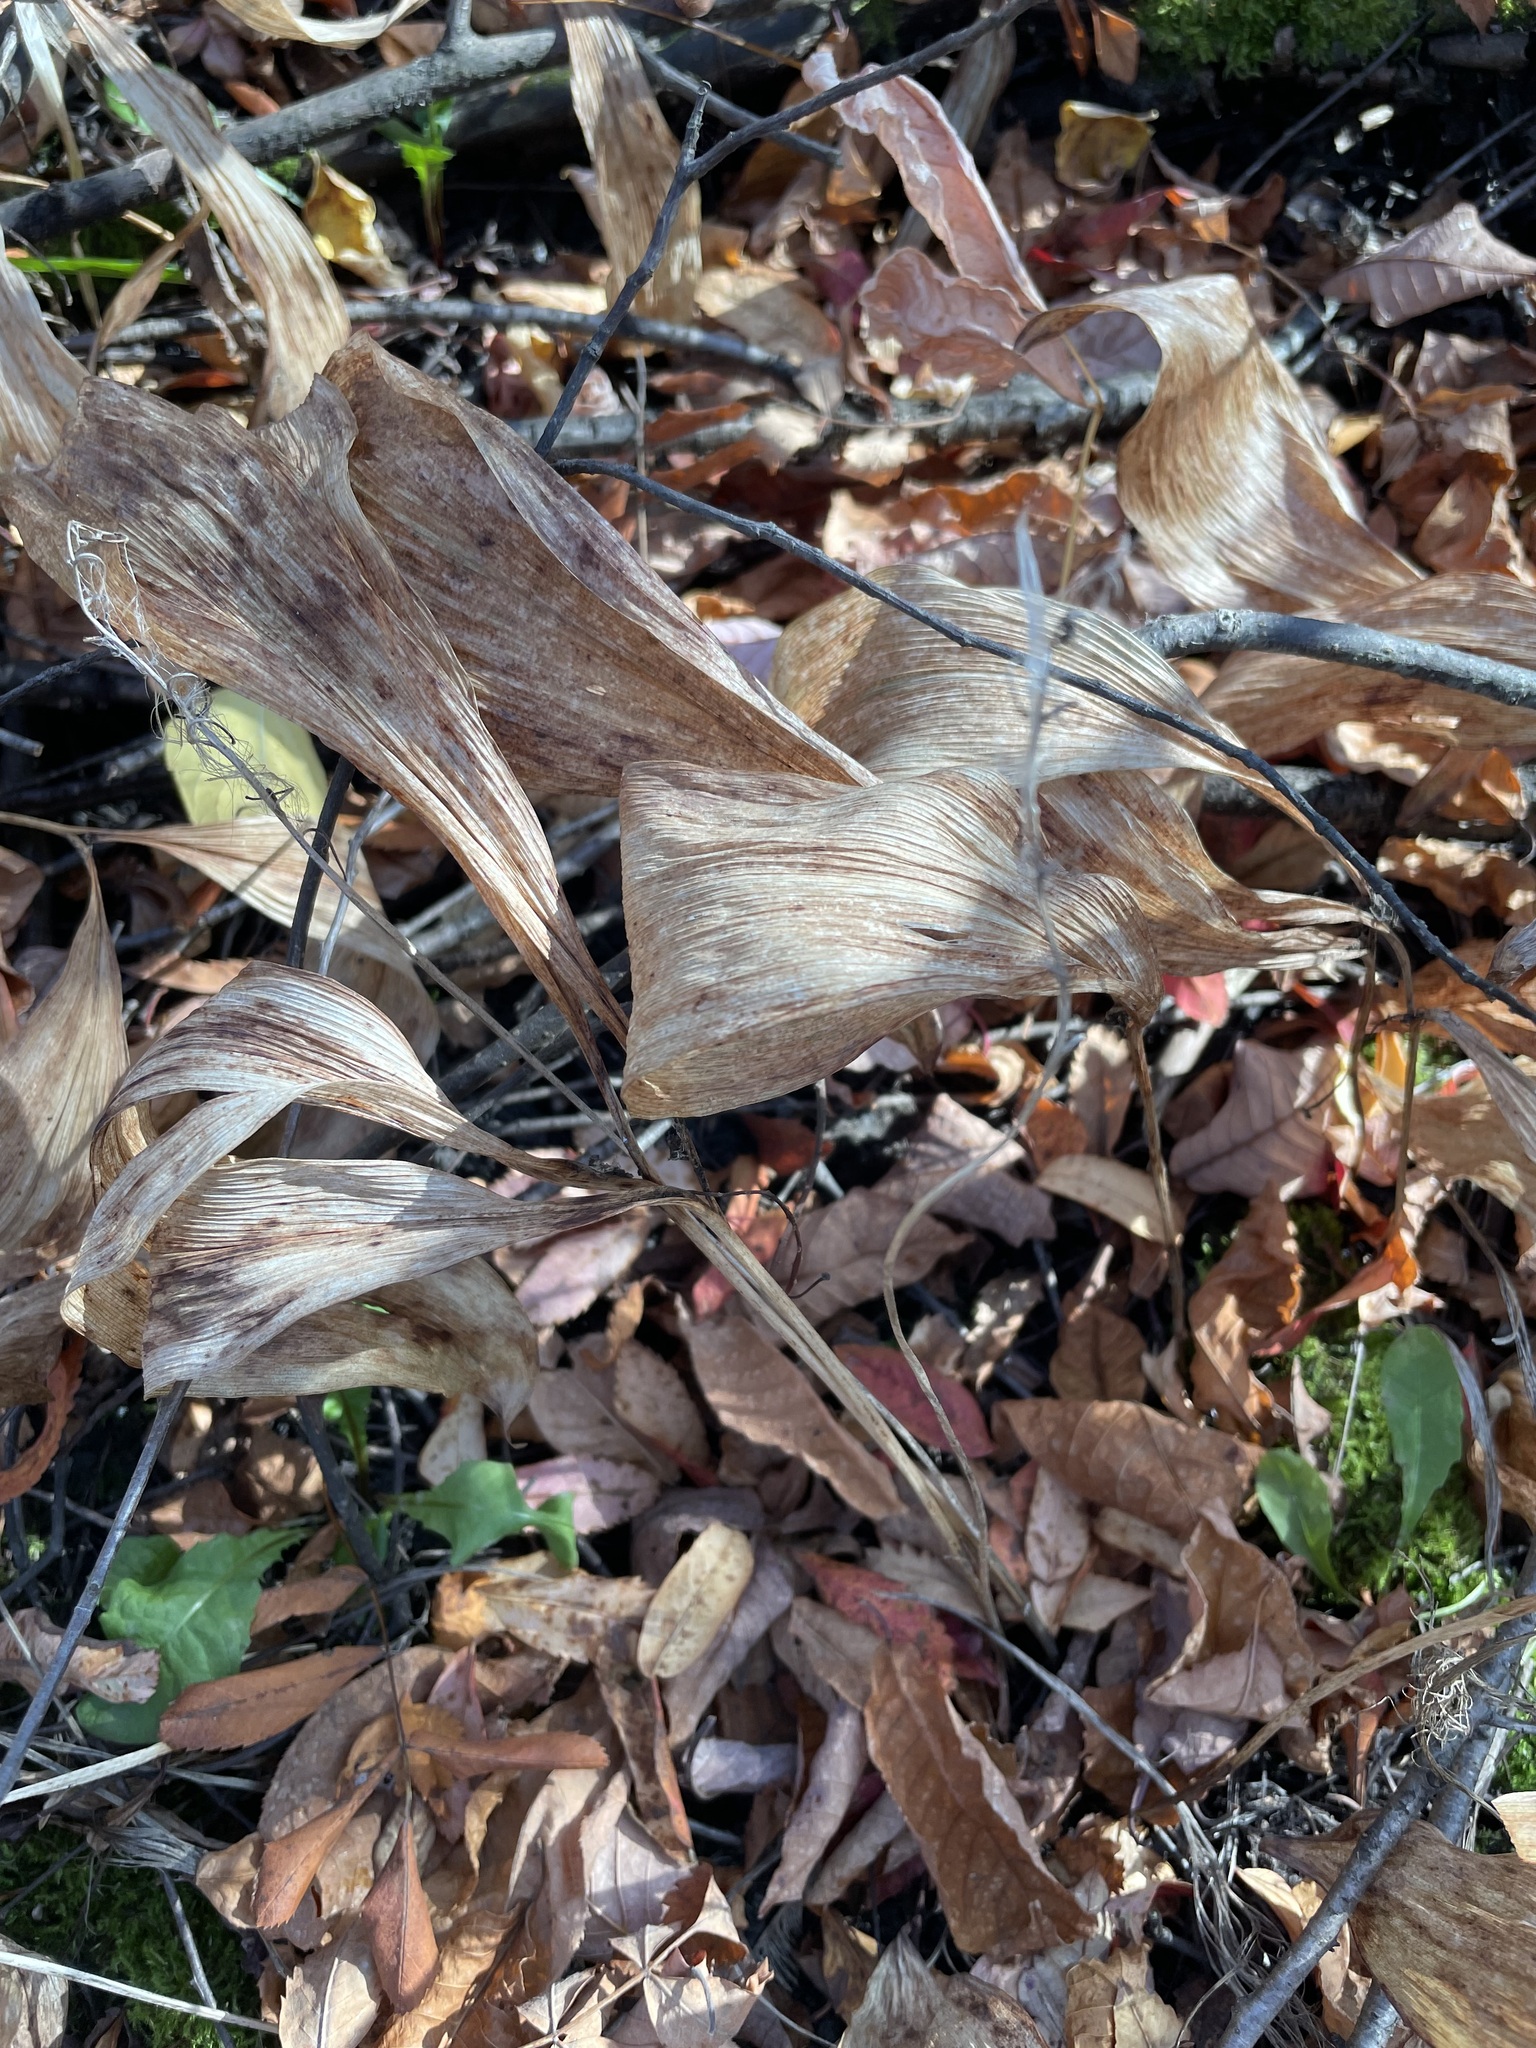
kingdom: Plantae
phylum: Tracheophyta
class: Liliopsida
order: Asparagales
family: Asparagaceae
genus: Convallaria
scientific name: Convallaria majalis
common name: Lily-of-the-valley
